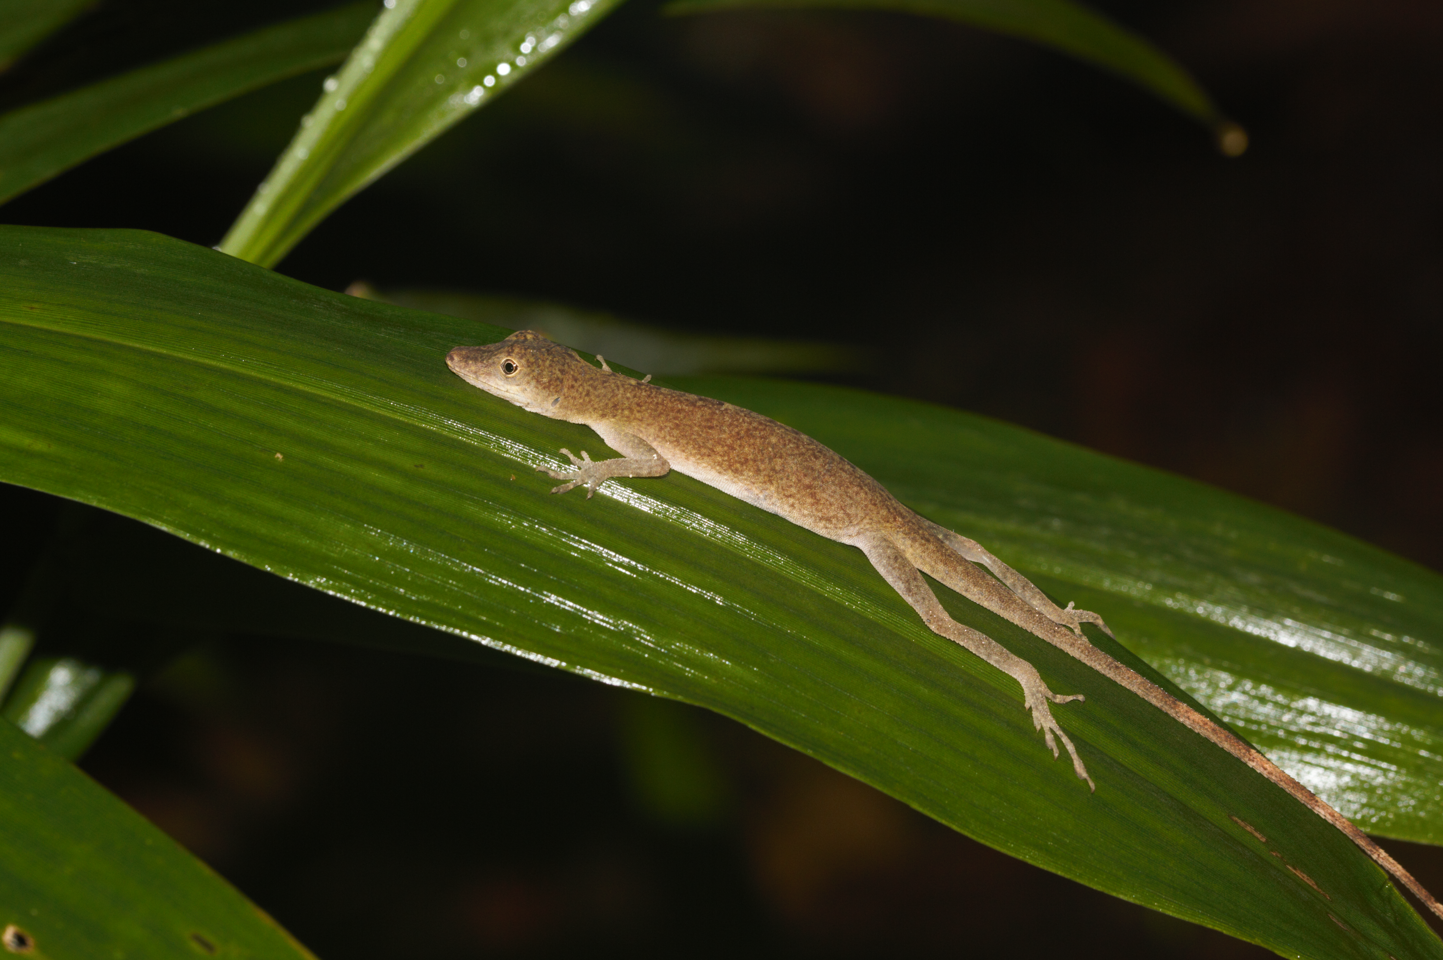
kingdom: Animalia
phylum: Chordata
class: Squamata
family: Dactyloidae
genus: Anolis
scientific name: Anolis fuscoauratus
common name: Brown-eared anole
